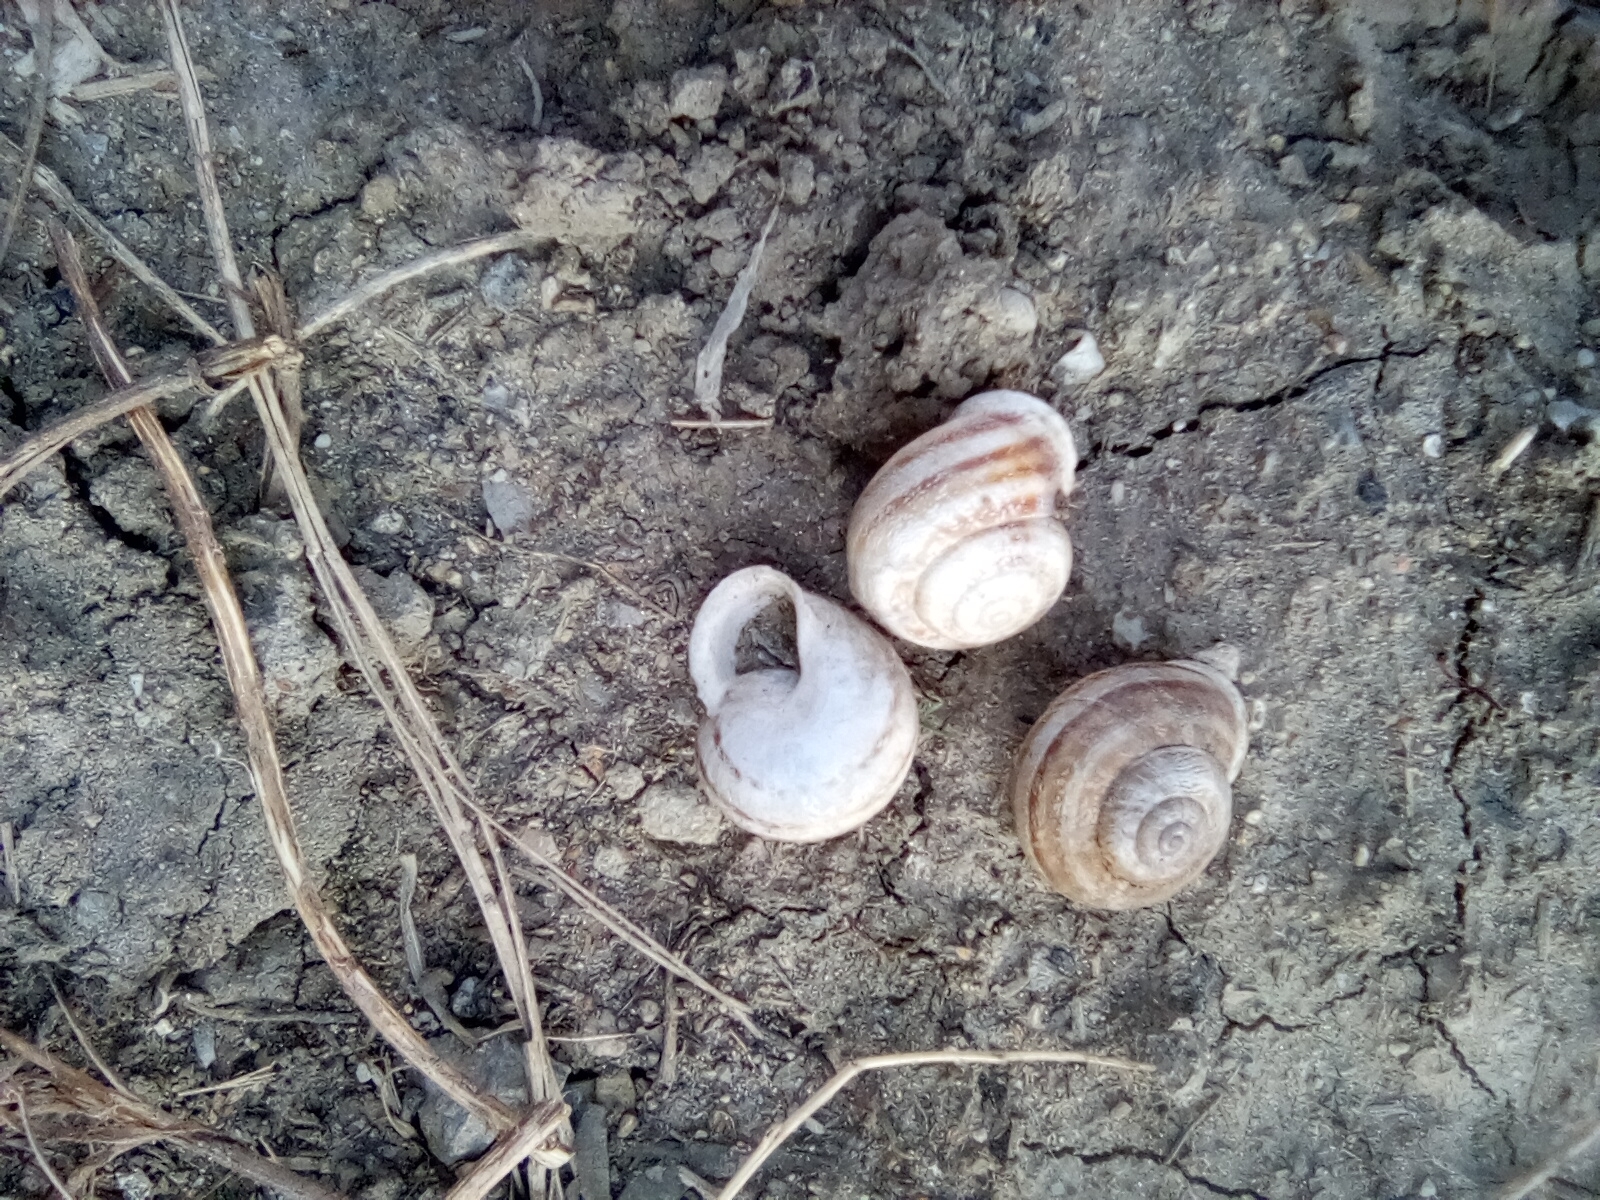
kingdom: Animalia
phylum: Mollusca
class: Gastropoda
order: Stylommatophora
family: Helicidae
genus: Eobania
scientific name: Eobania vermiculata
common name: Chocolateband snail
